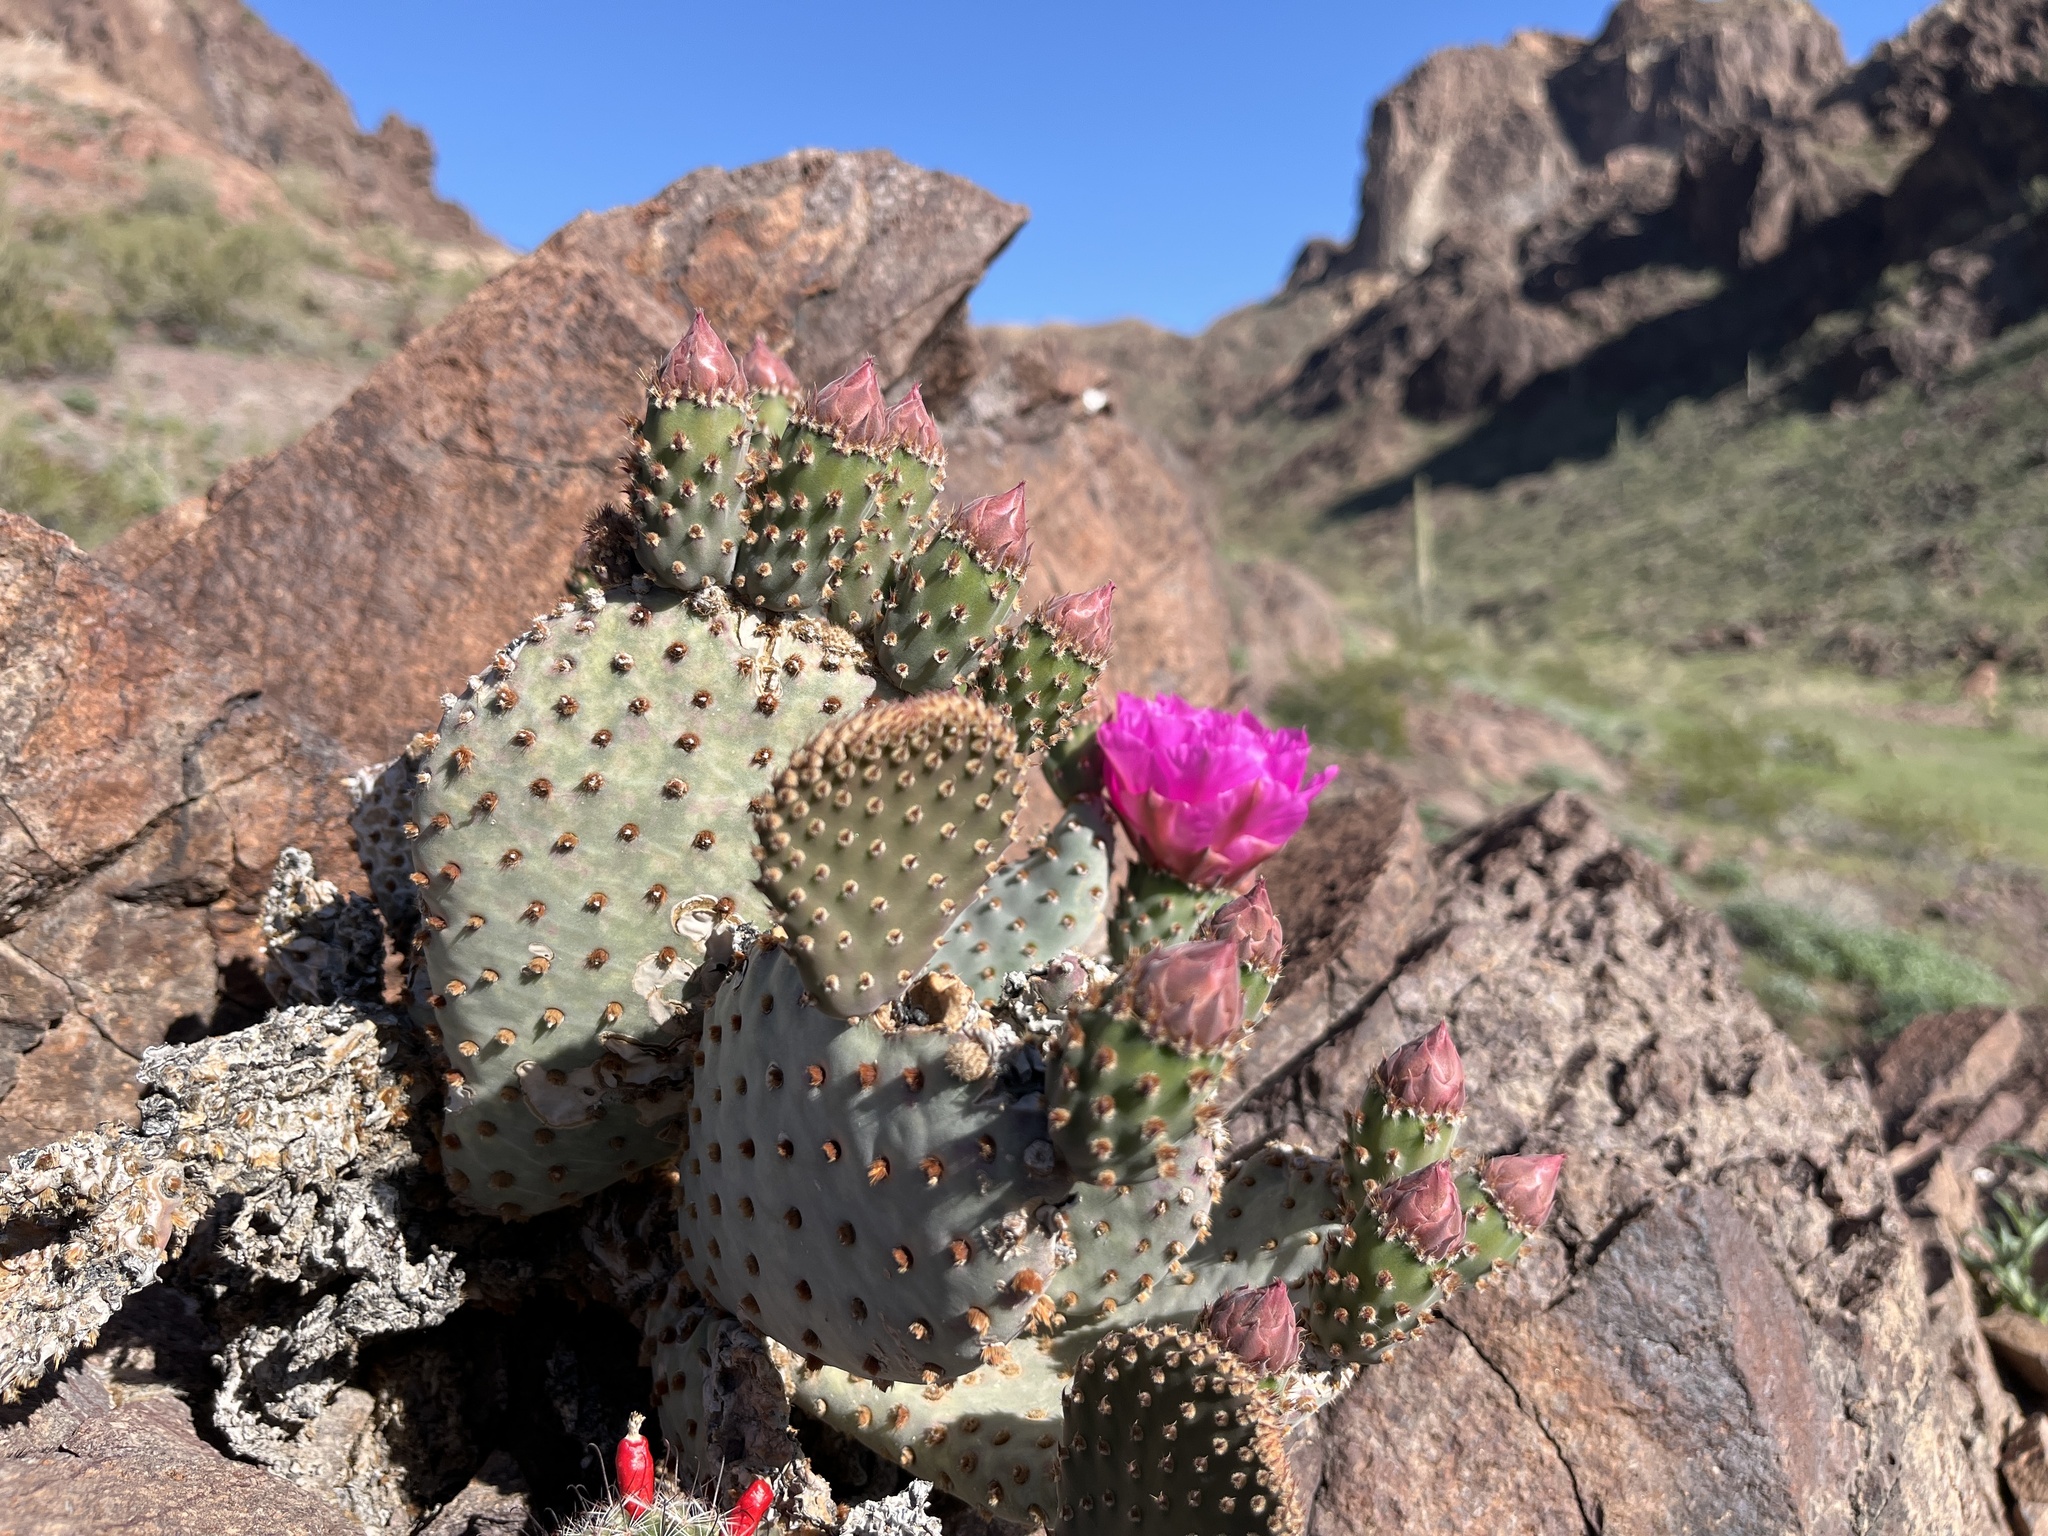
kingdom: Plantae
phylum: Tracheophyta
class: Magnoliopsida
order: Caryophyllales
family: Cactaceae
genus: Opuntia
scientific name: Opuntia basilaris
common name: Beavertail prickly-pear
